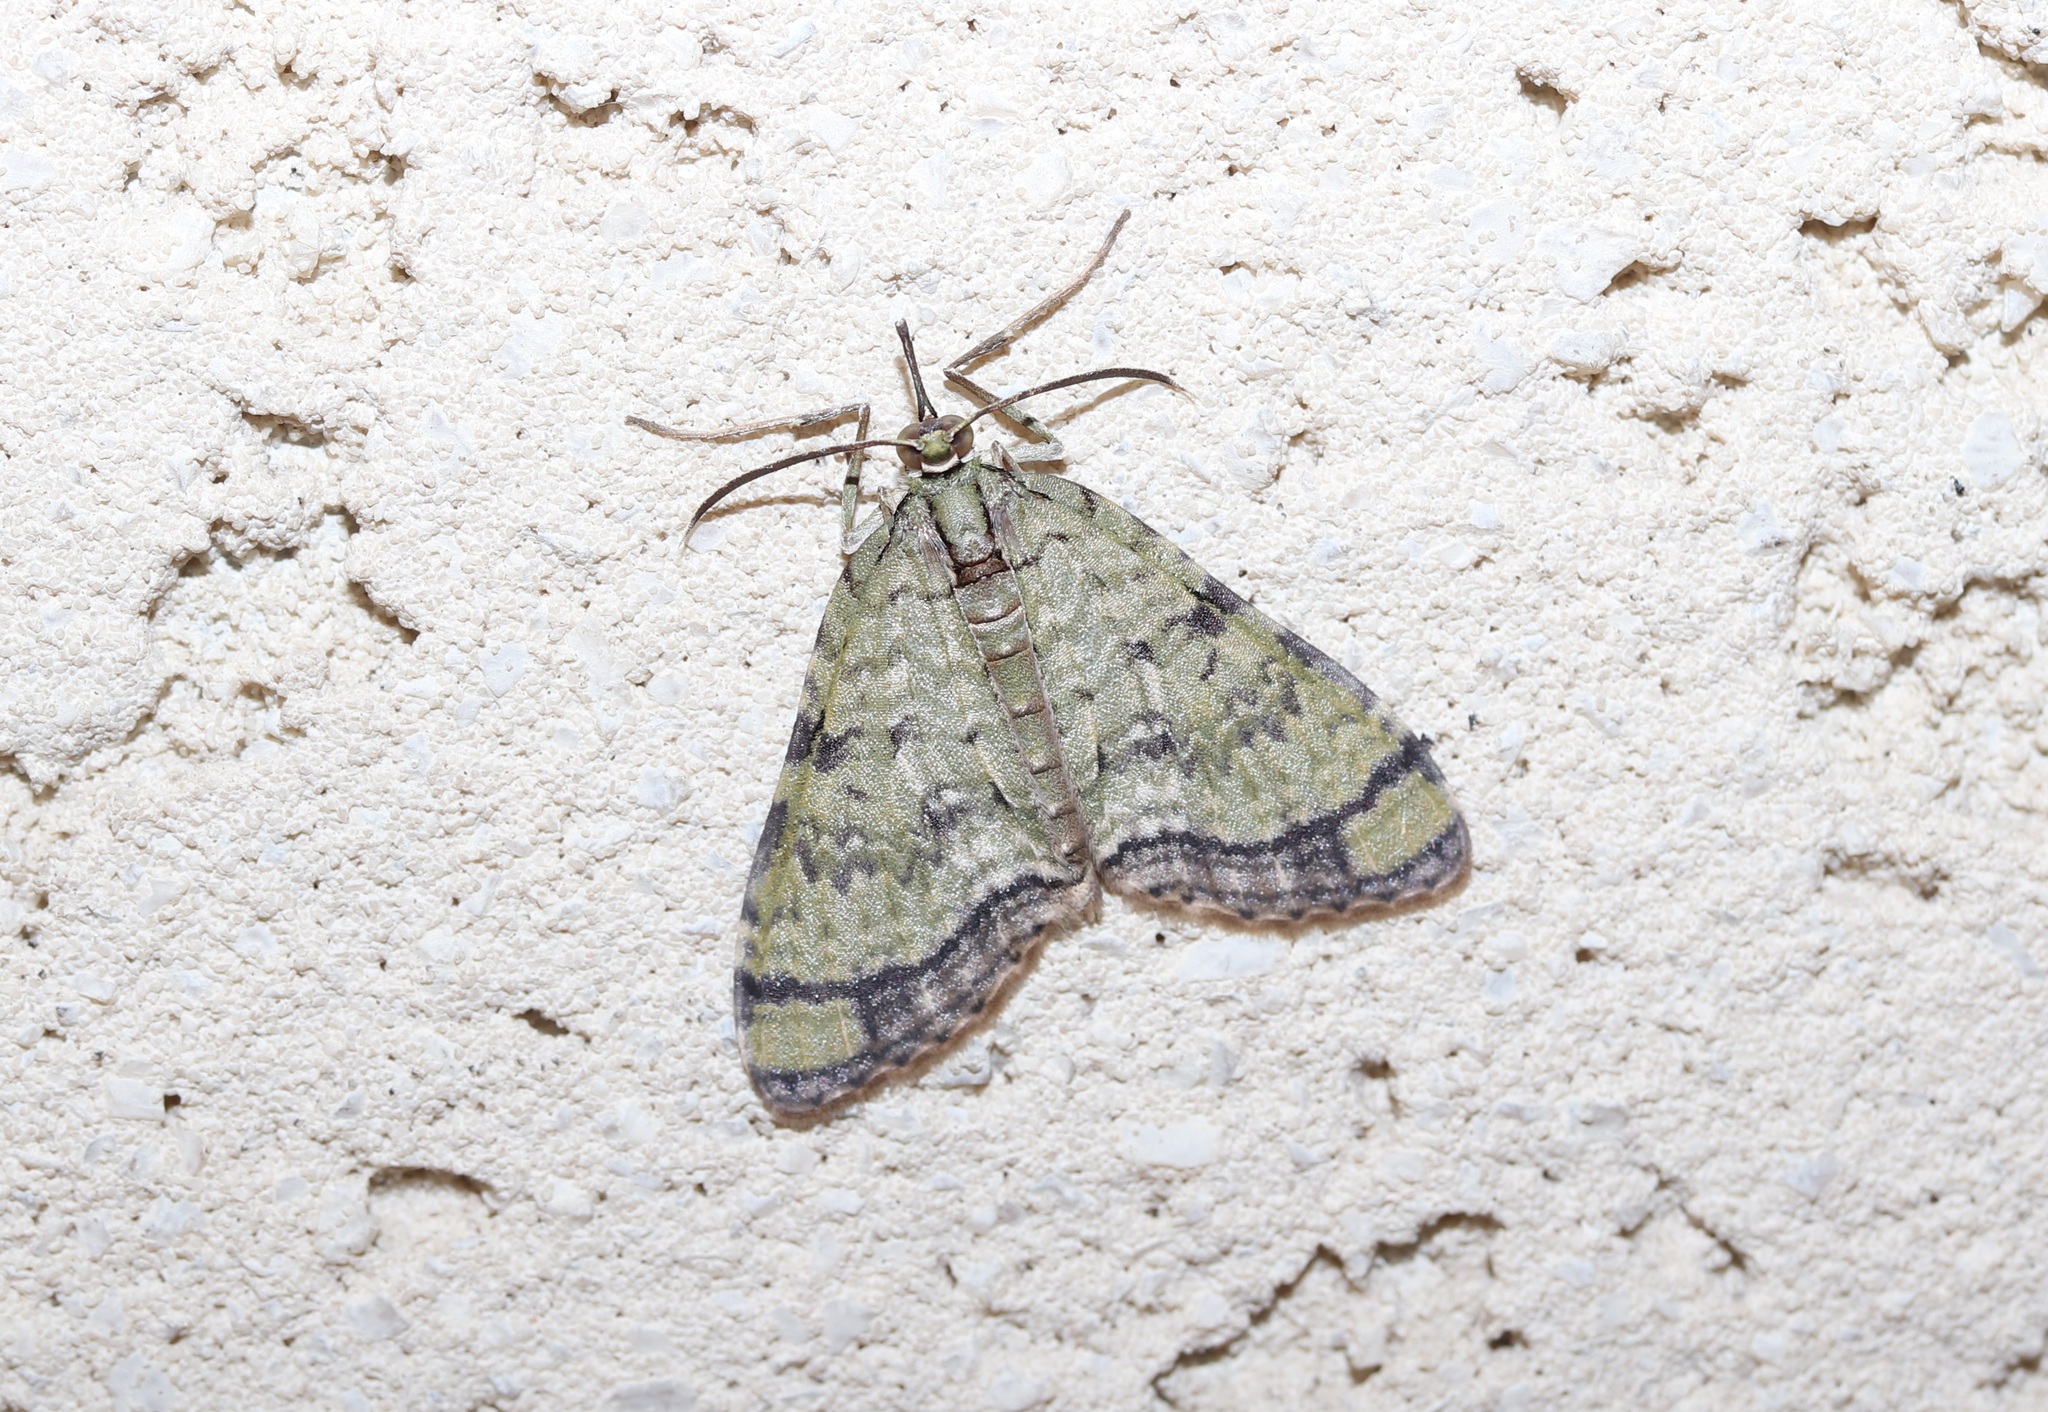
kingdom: Animalia
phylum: Arthropoda
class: Insecta
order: Lepidoptera
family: Geometridae
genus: Episteira
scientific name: Episteira nigrilinearia
